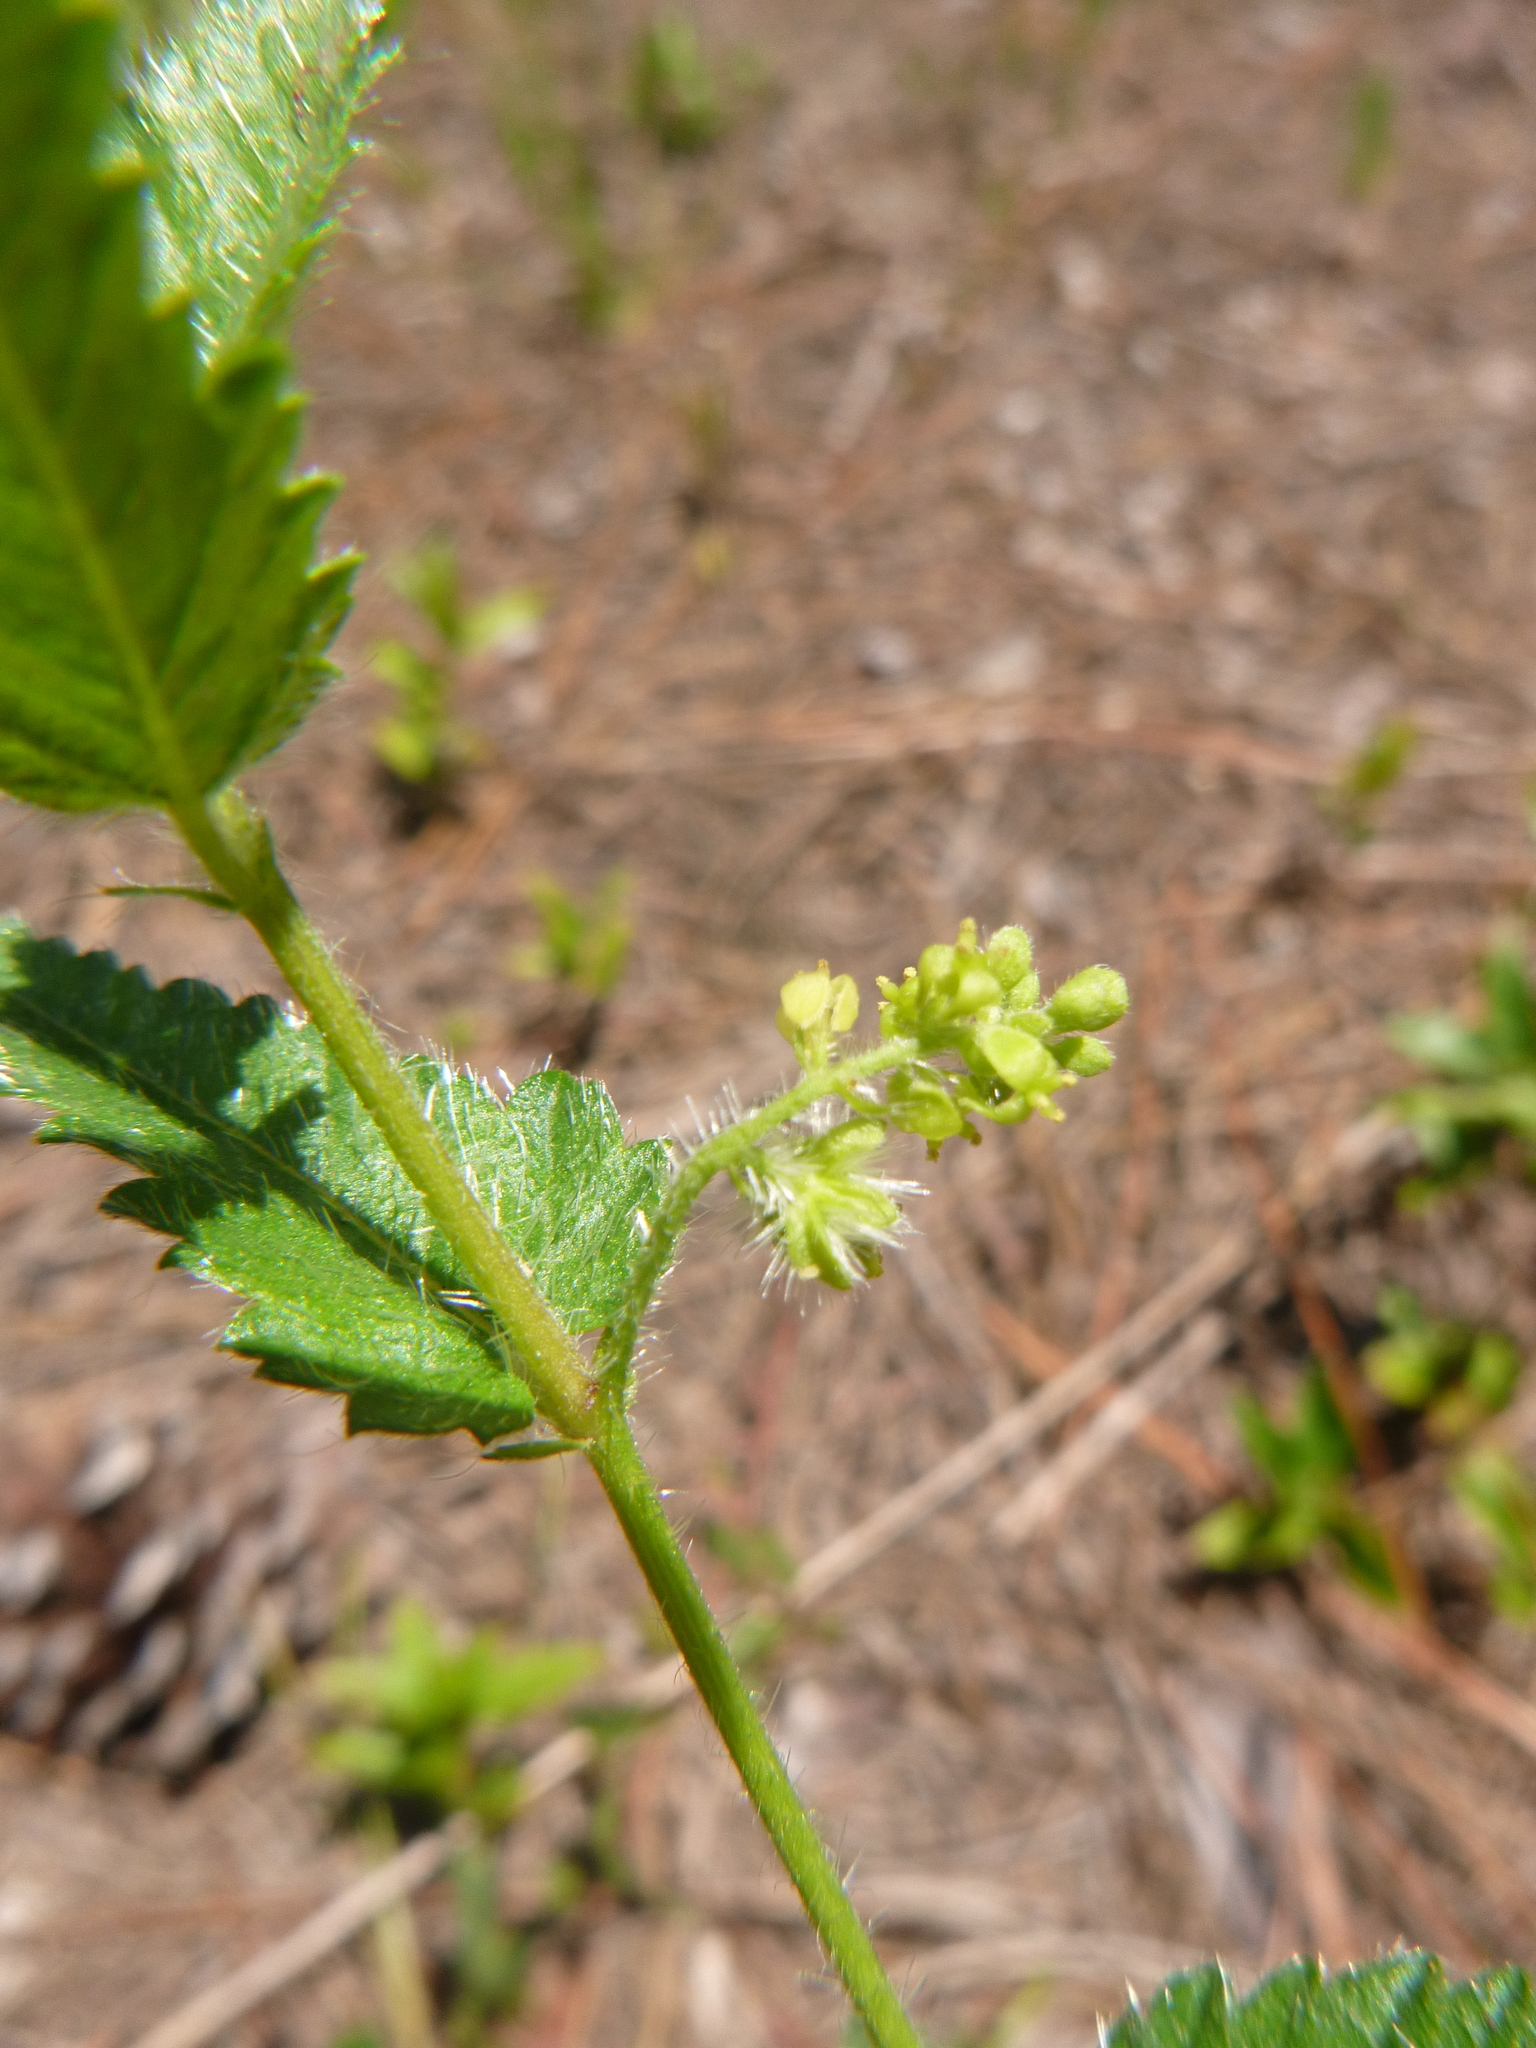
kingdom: Plantae
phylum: Tracheophyta
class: Magnoliopsida
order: Malpighiales
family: Euphorbiaceae
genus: Tragia
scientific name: Tragia urticifolia
